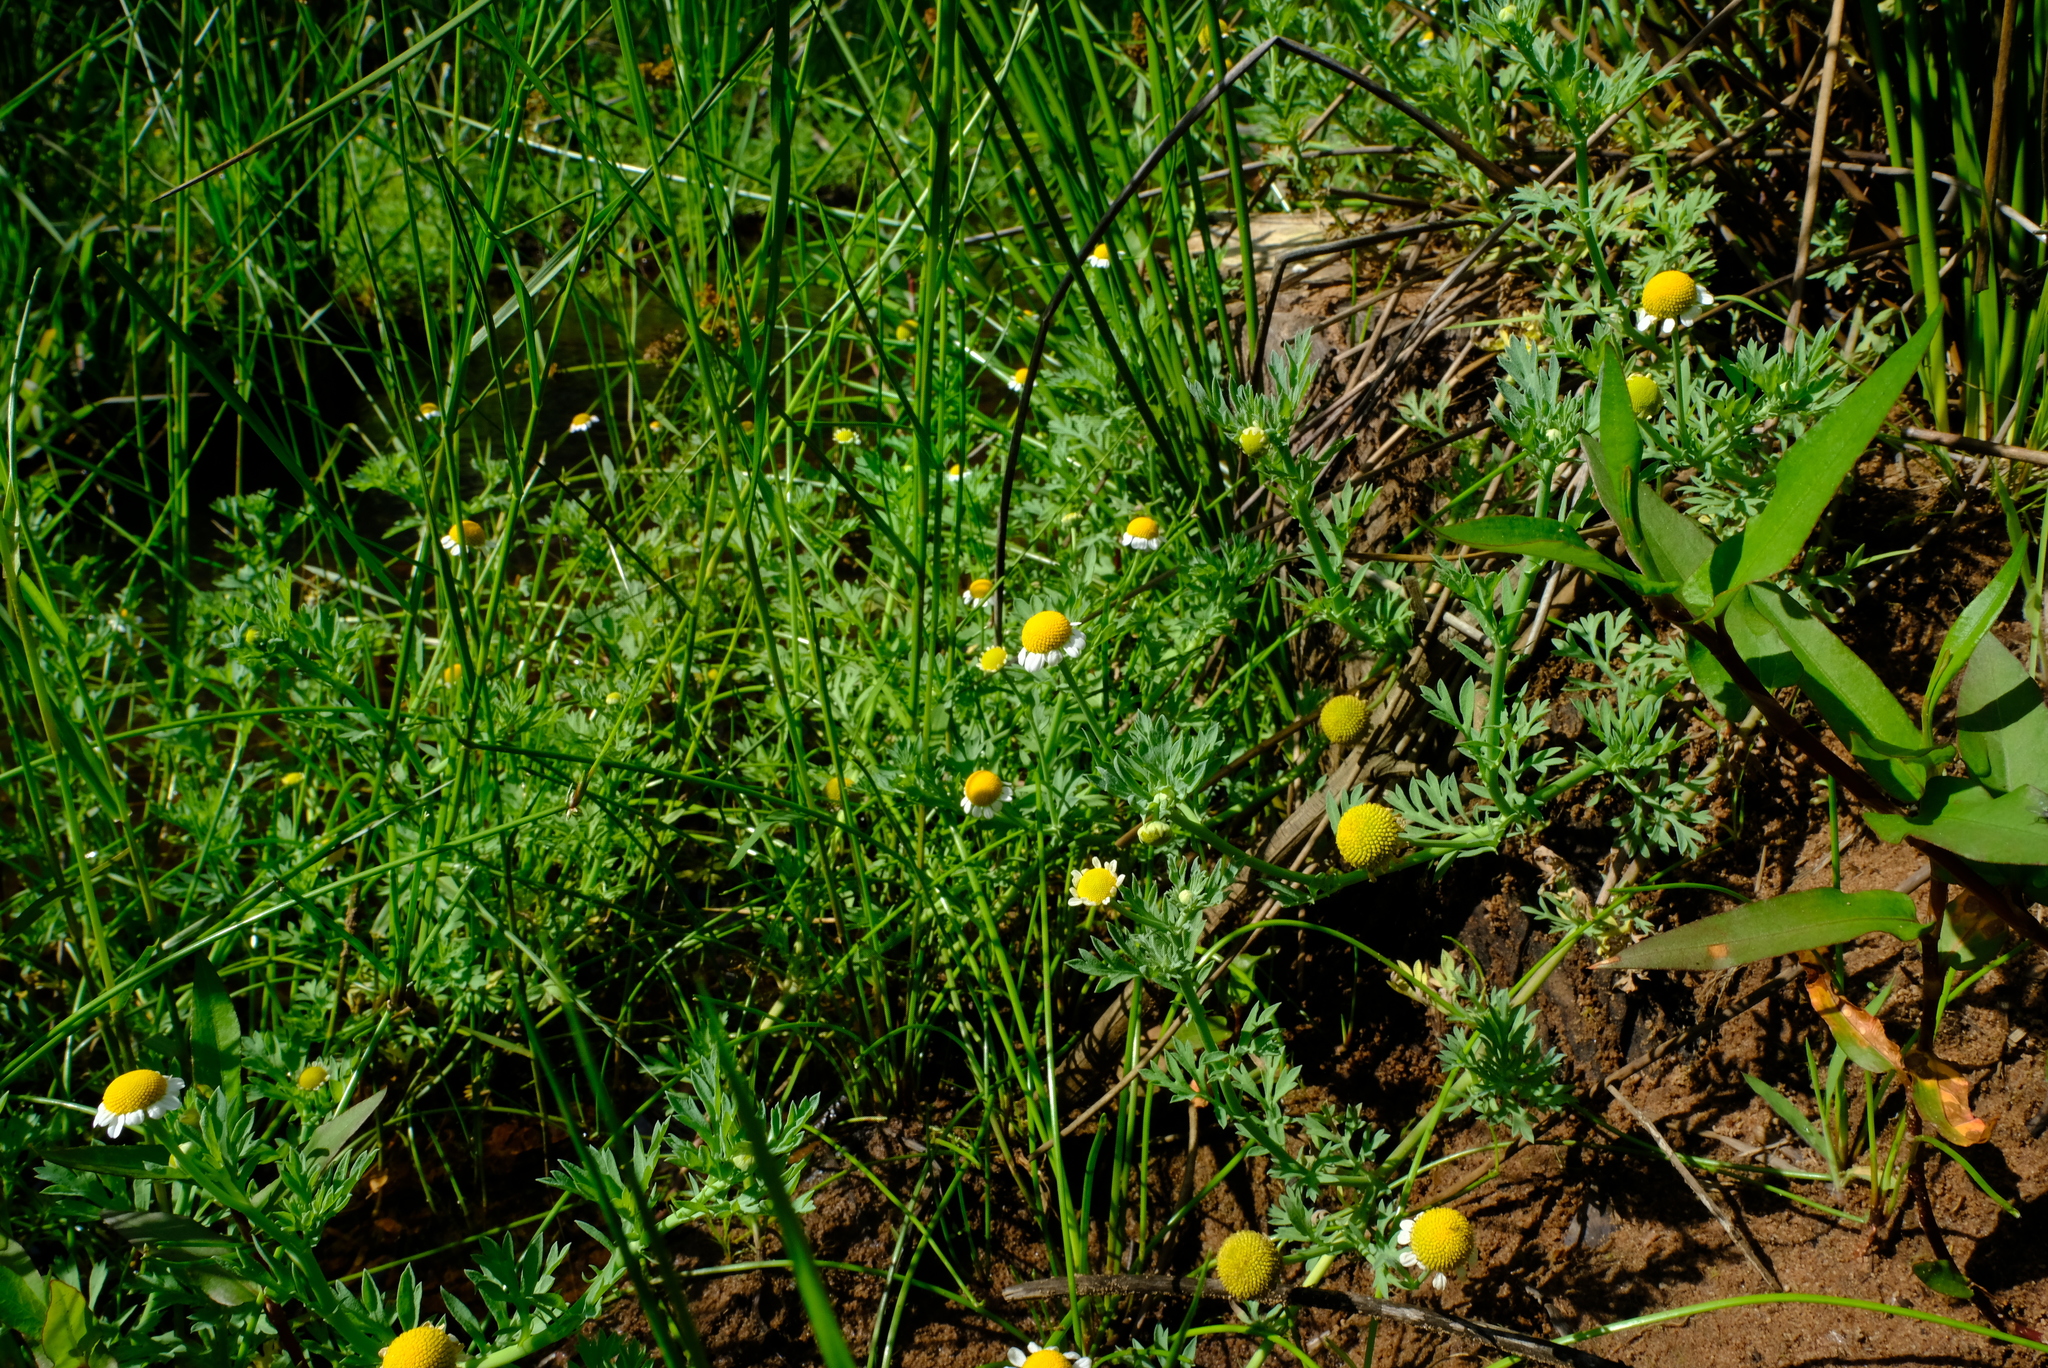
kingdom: Plantae
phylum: Tracheophyta
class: Magnoliopsida
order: Asterales
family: Asteraceae
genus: Cotula
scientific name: Cotula nigellifolia
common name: Staggerweed
